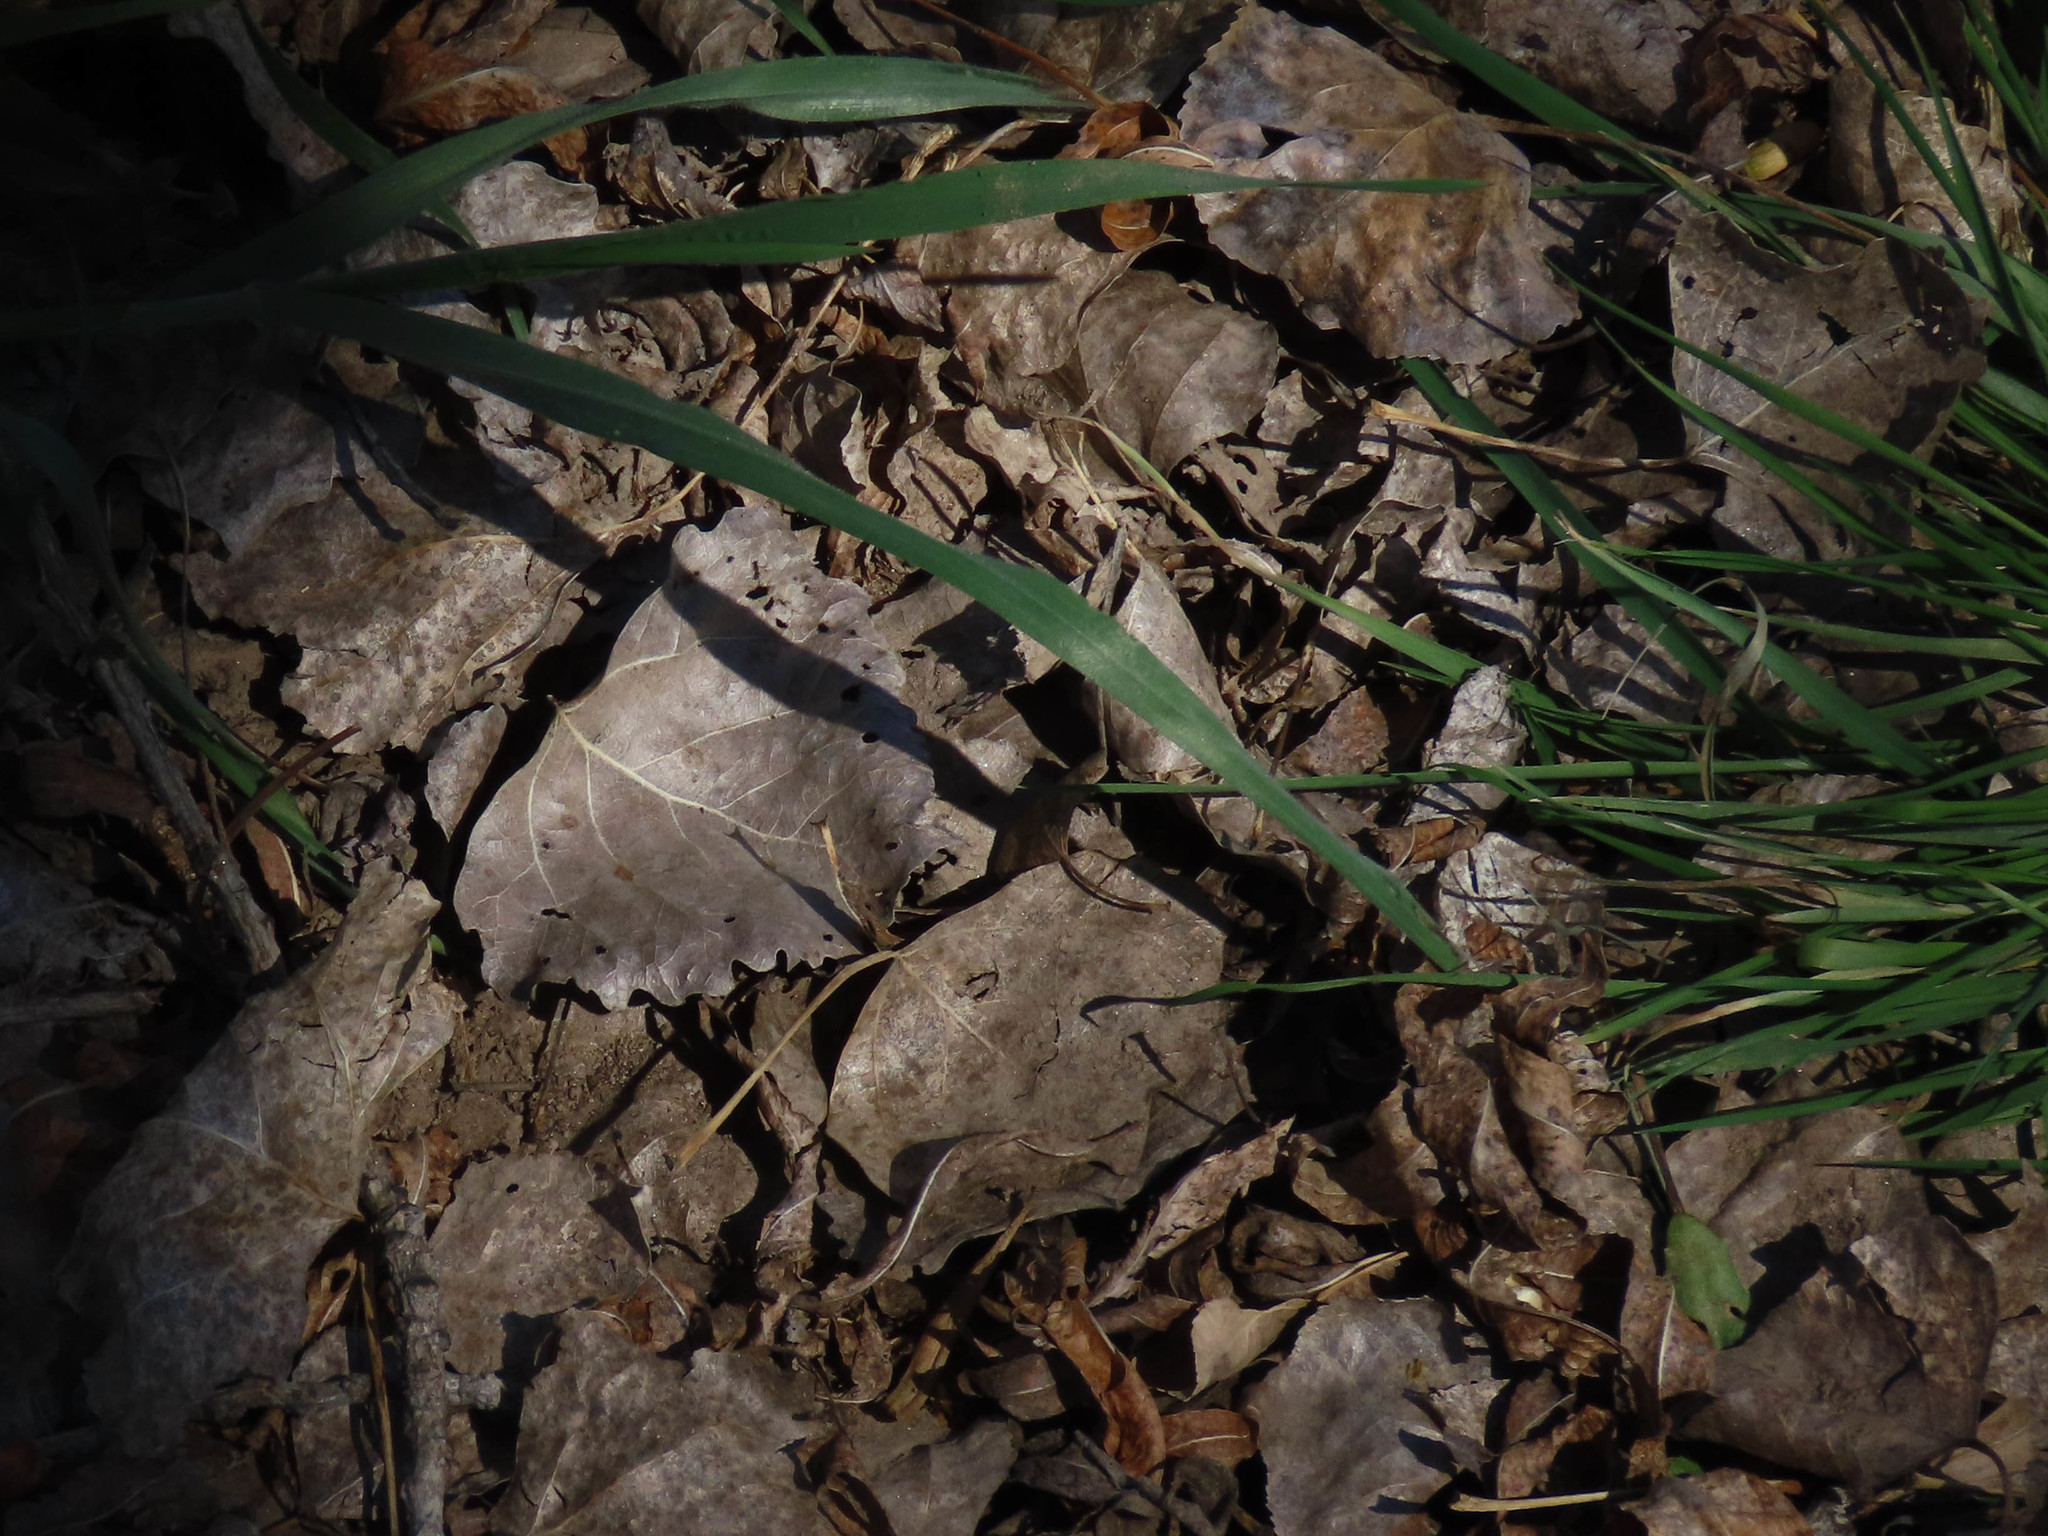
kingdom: Plantae
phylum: Tracheophyta
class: Magnoliopsida
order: Malpighiales
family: Salicaceae
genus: Populus
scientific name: Populus fremontii
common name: Fremont's cottonwood
